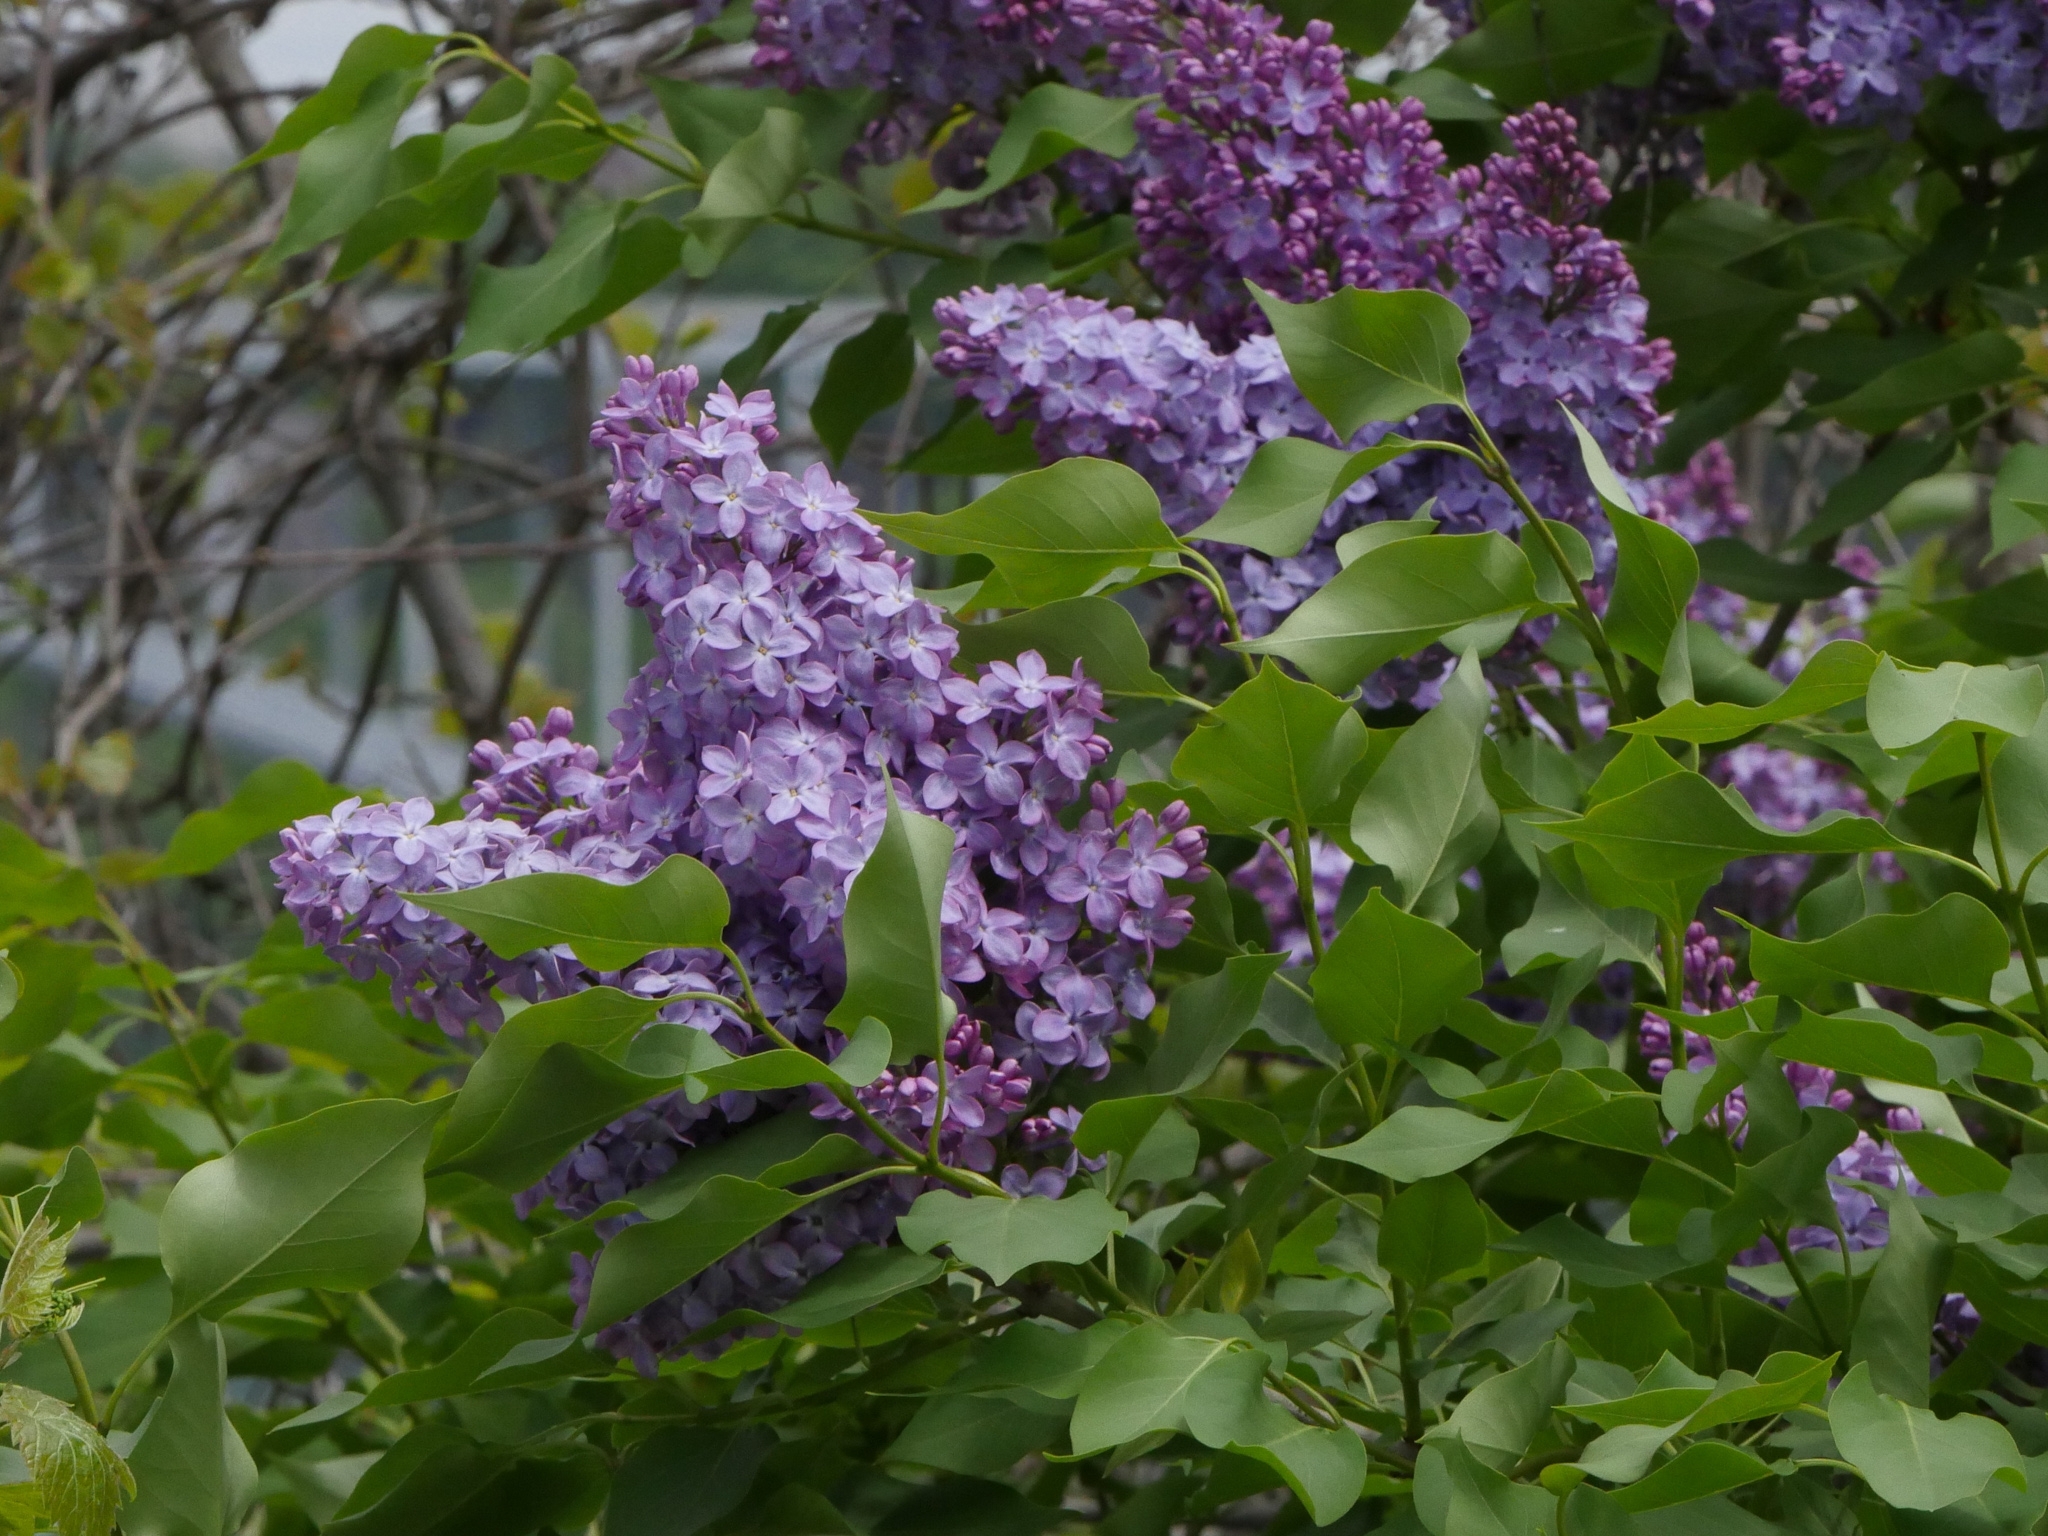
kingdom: Plantae
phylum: Tracheophyta
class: Magnoliopsida
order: Lamiales
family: Oleaceae
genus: Syringa
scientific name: Syringa vulgaris
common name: Common lilac
